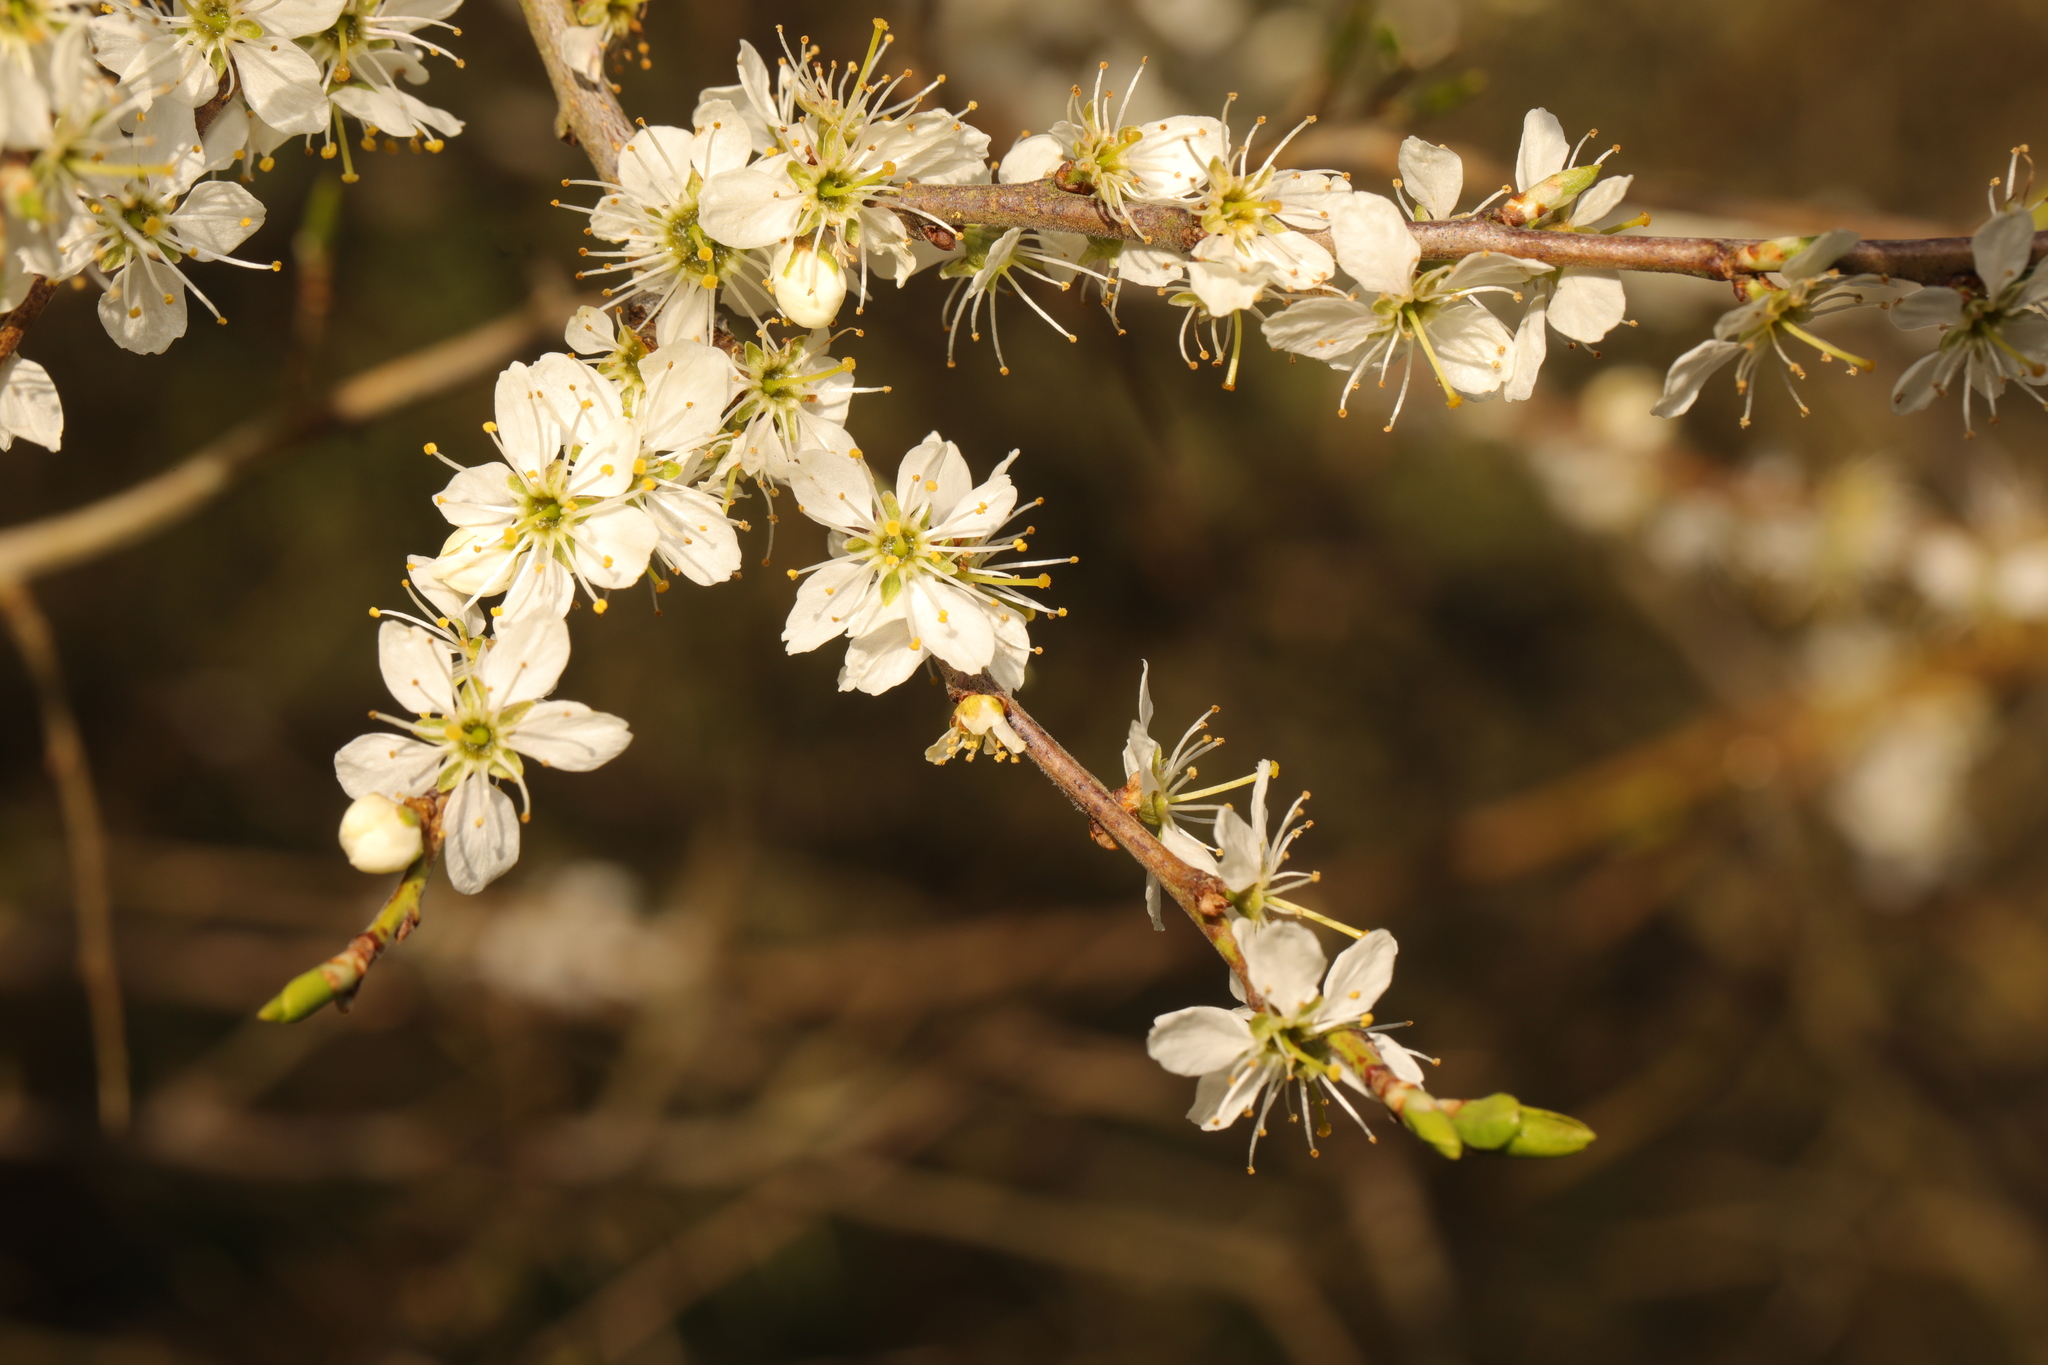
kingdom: Plantae
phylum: Tracheophyta
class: Magnoliopsida
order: Rosales
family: Rosaceae
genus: Prunus
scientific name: Prunus spinosa
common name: Blackthorn
